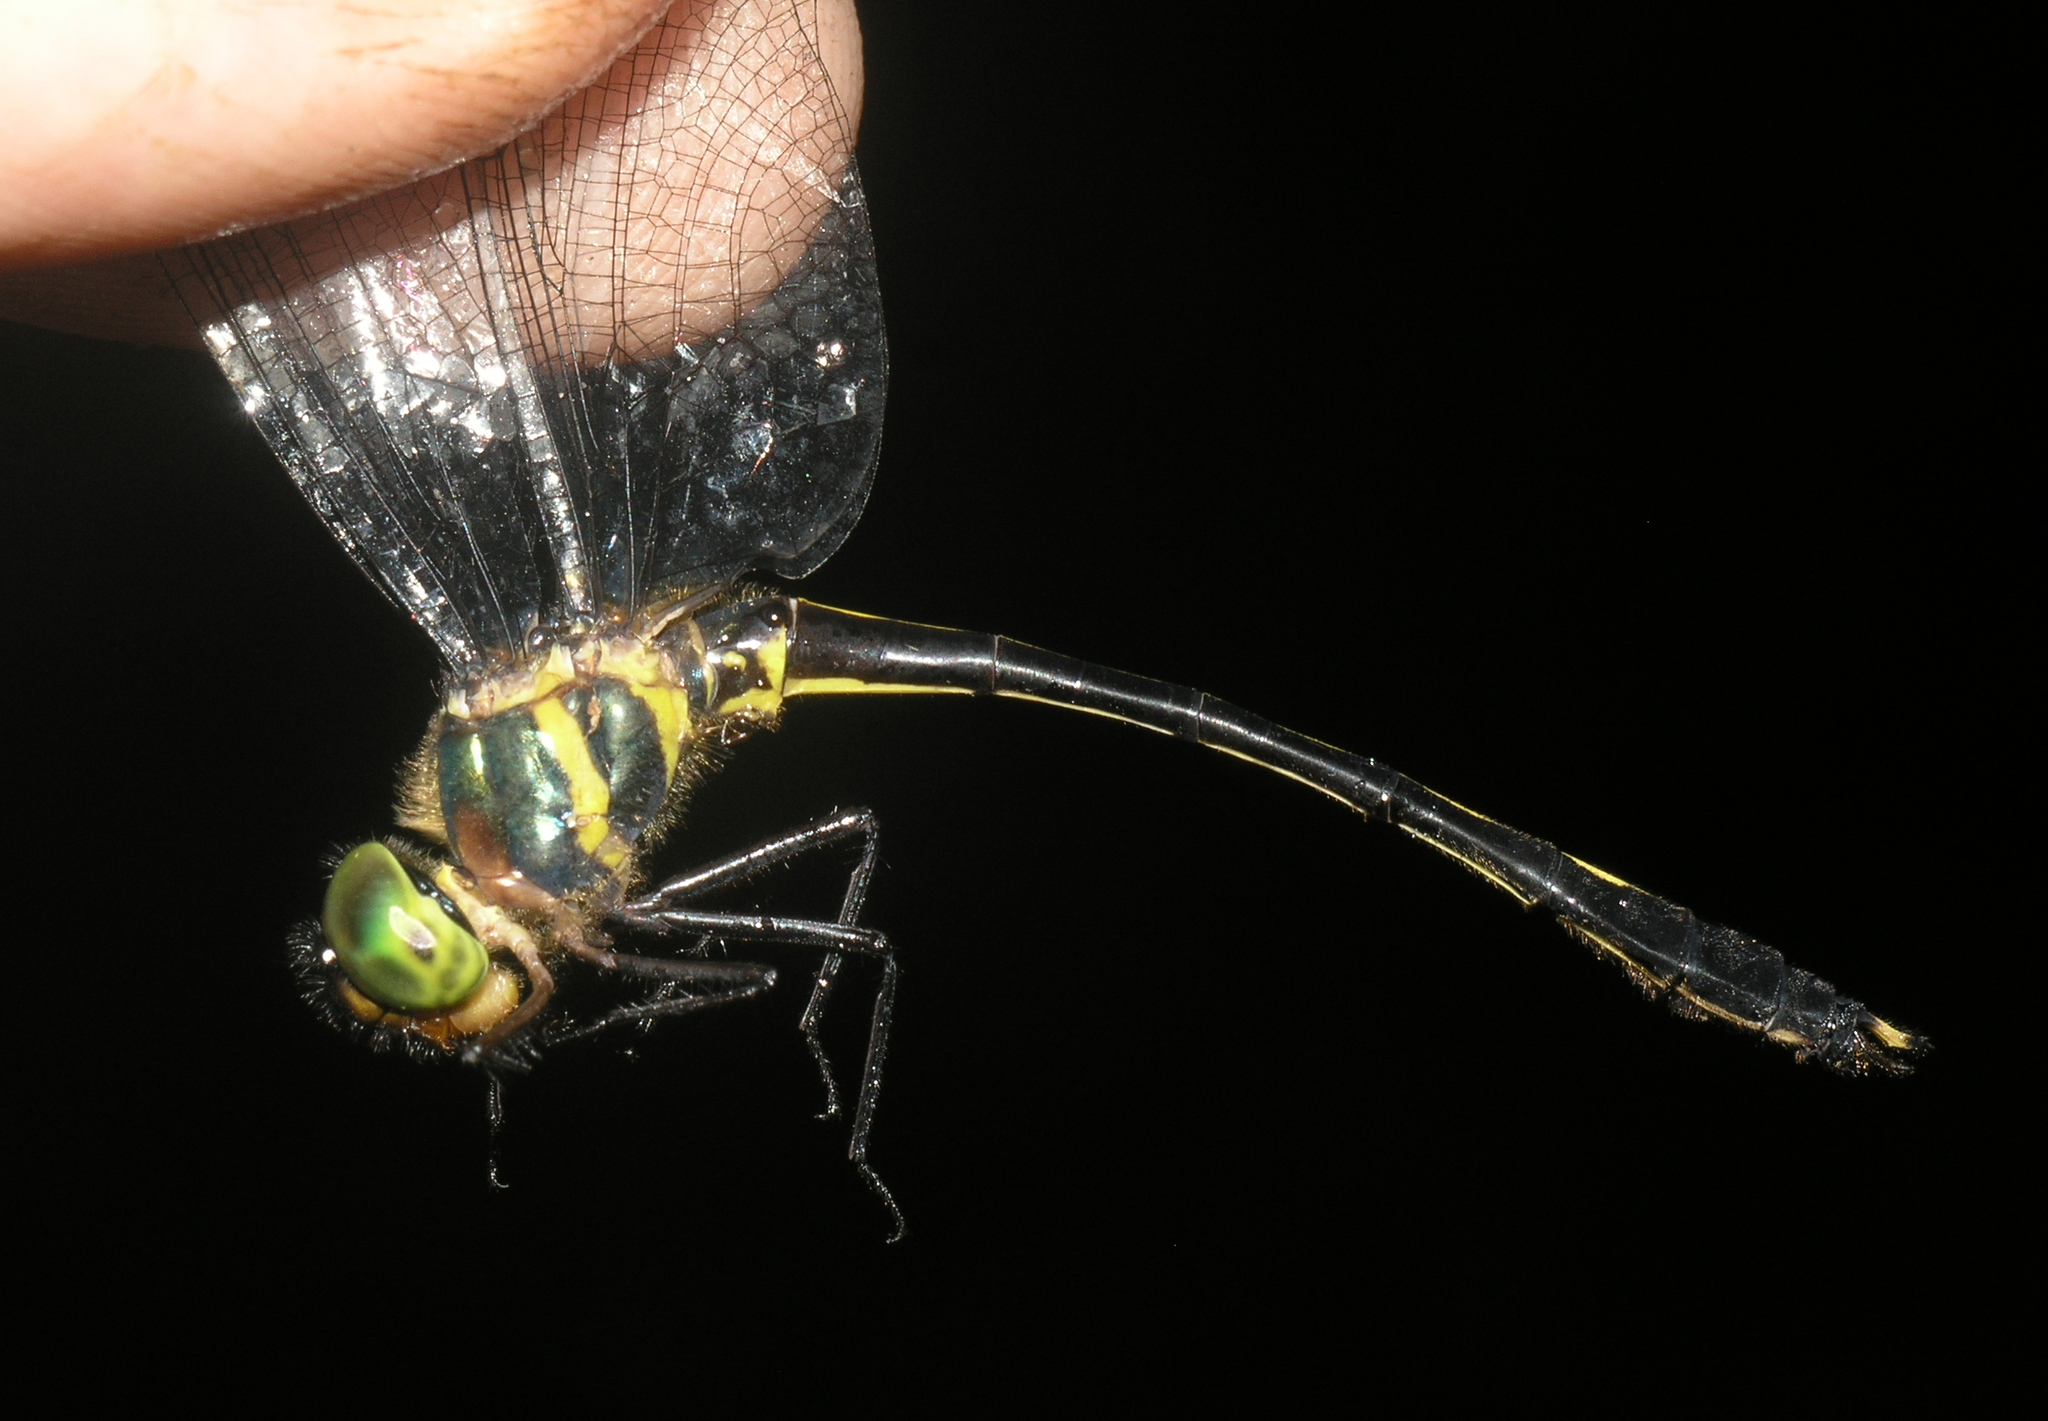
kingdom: Animalia
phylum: Arthropoda
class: Insecta
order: Odonata
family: Corduliidae
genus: Macromidia
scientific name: Macromidia rapida
